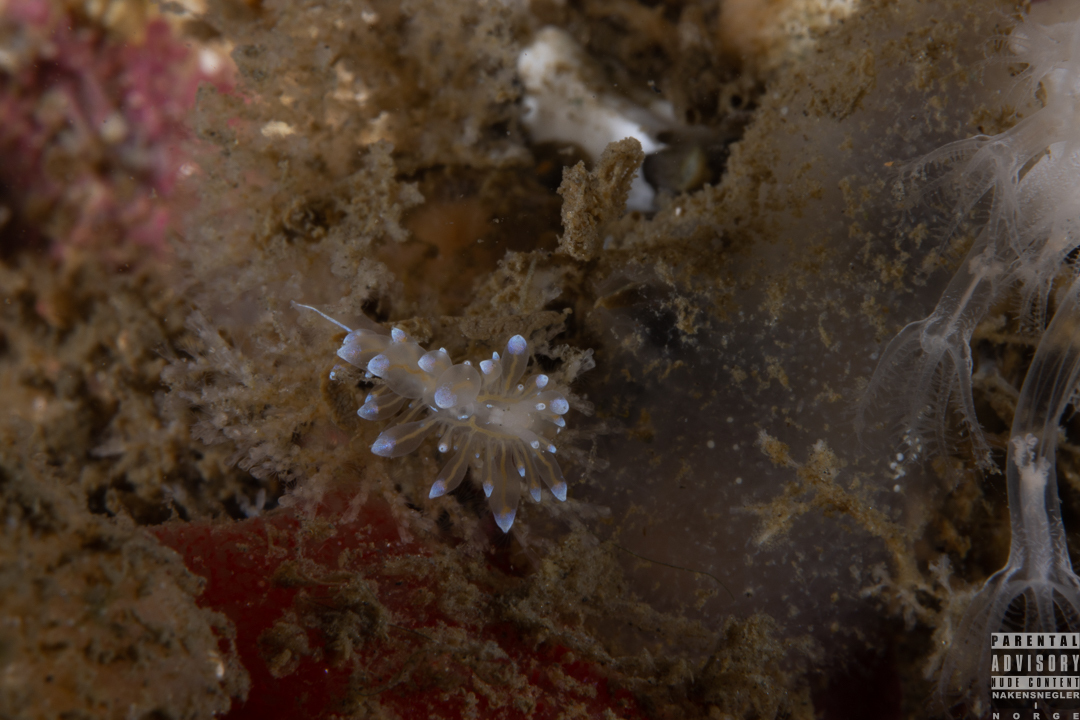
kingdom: Animalia
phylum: Mollusca
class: Gastropoda
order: Nudibranchia
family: Janolidae
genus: Antiopella
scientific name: Antiopella cristata
